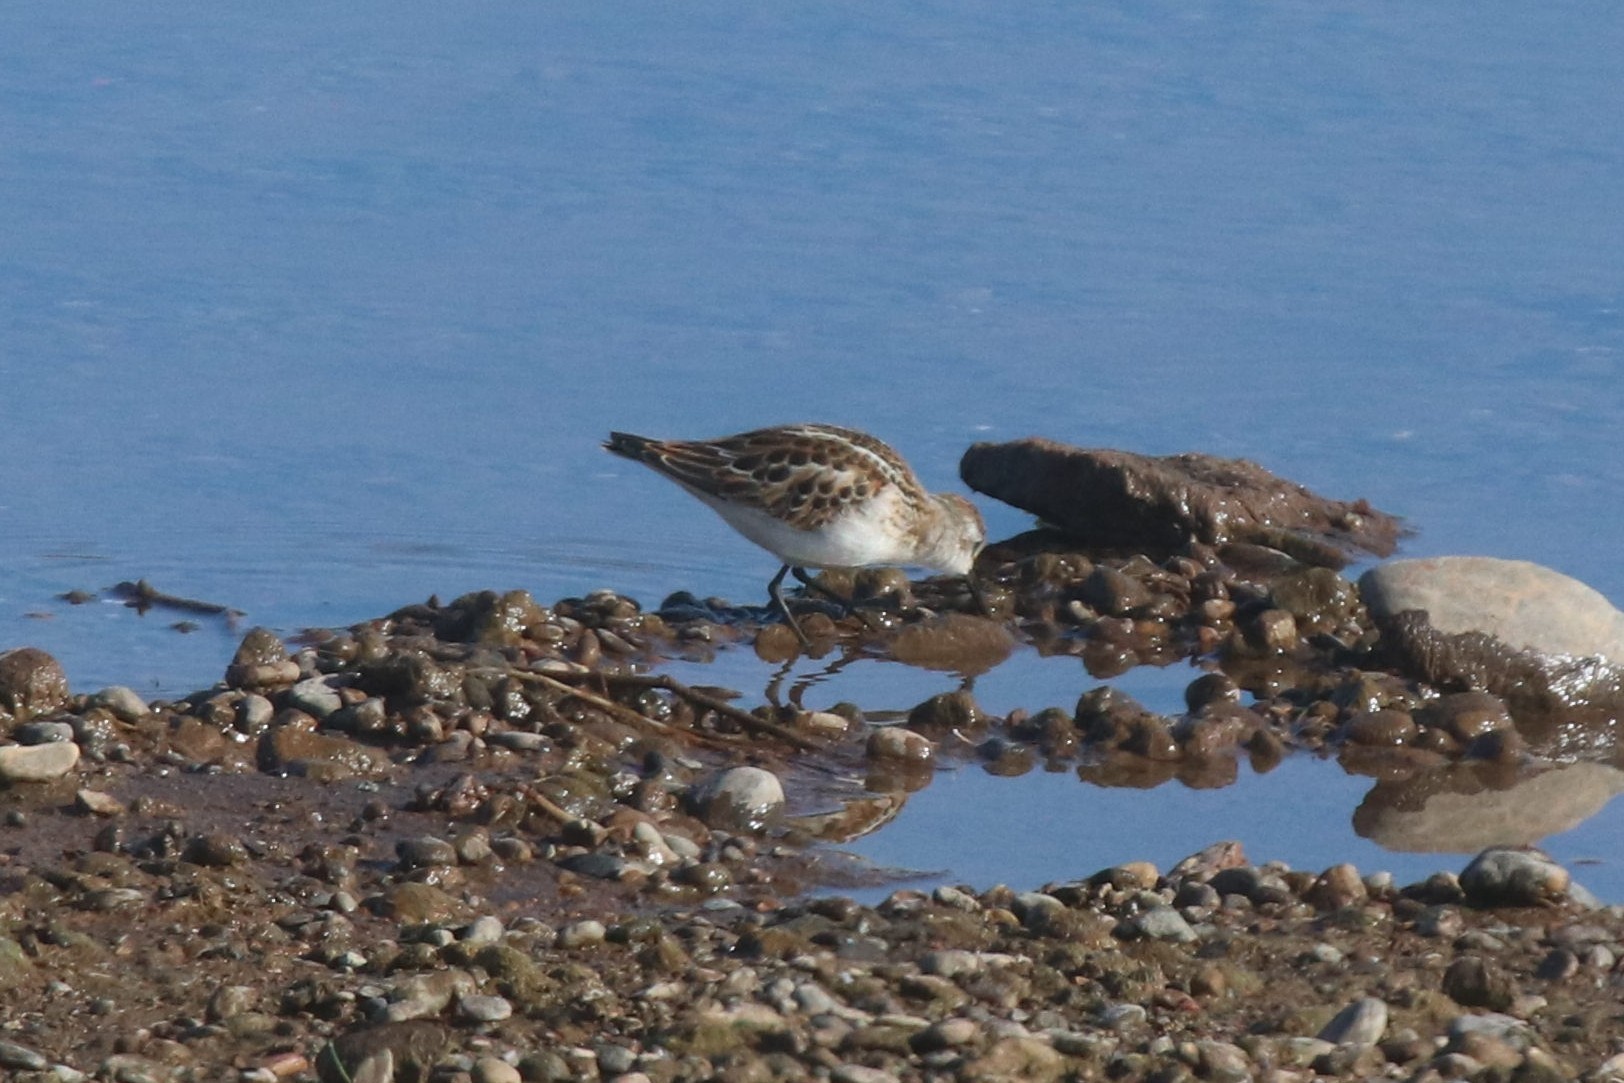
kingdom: Animalia
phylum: Chordata
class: Aves
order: Charadriiformes
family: Scolopacidae
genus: Calidris
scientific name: Calidris minuta
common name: Little stint
